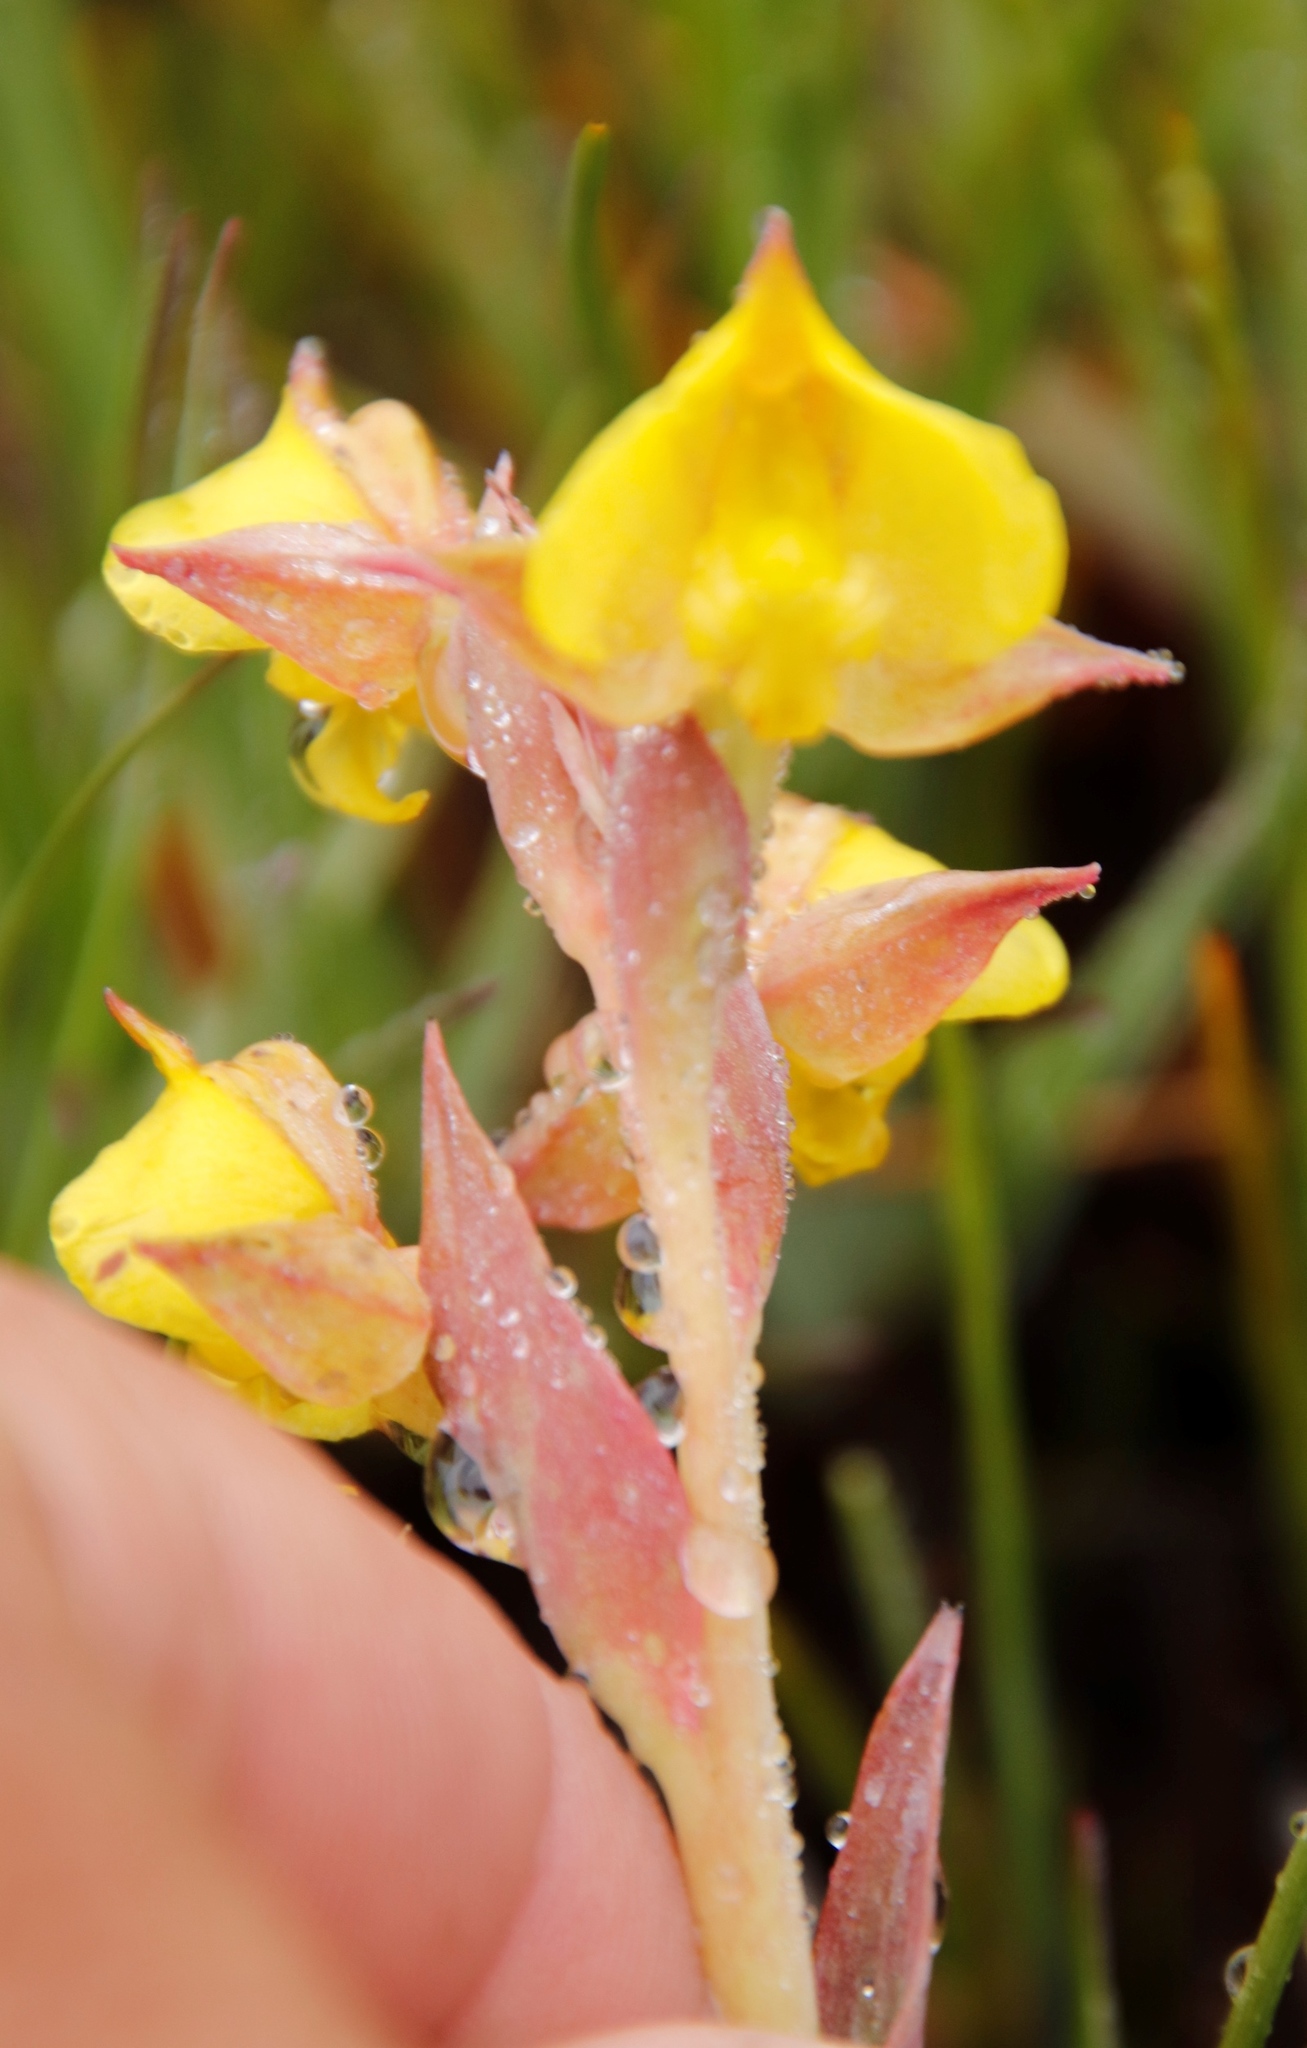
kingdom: Plantae
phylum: Tracheophyta
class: Liliopsida
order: Asparagales
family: Orchidaceae
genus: Pterygodium
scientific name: Pterygodium acutifolium
